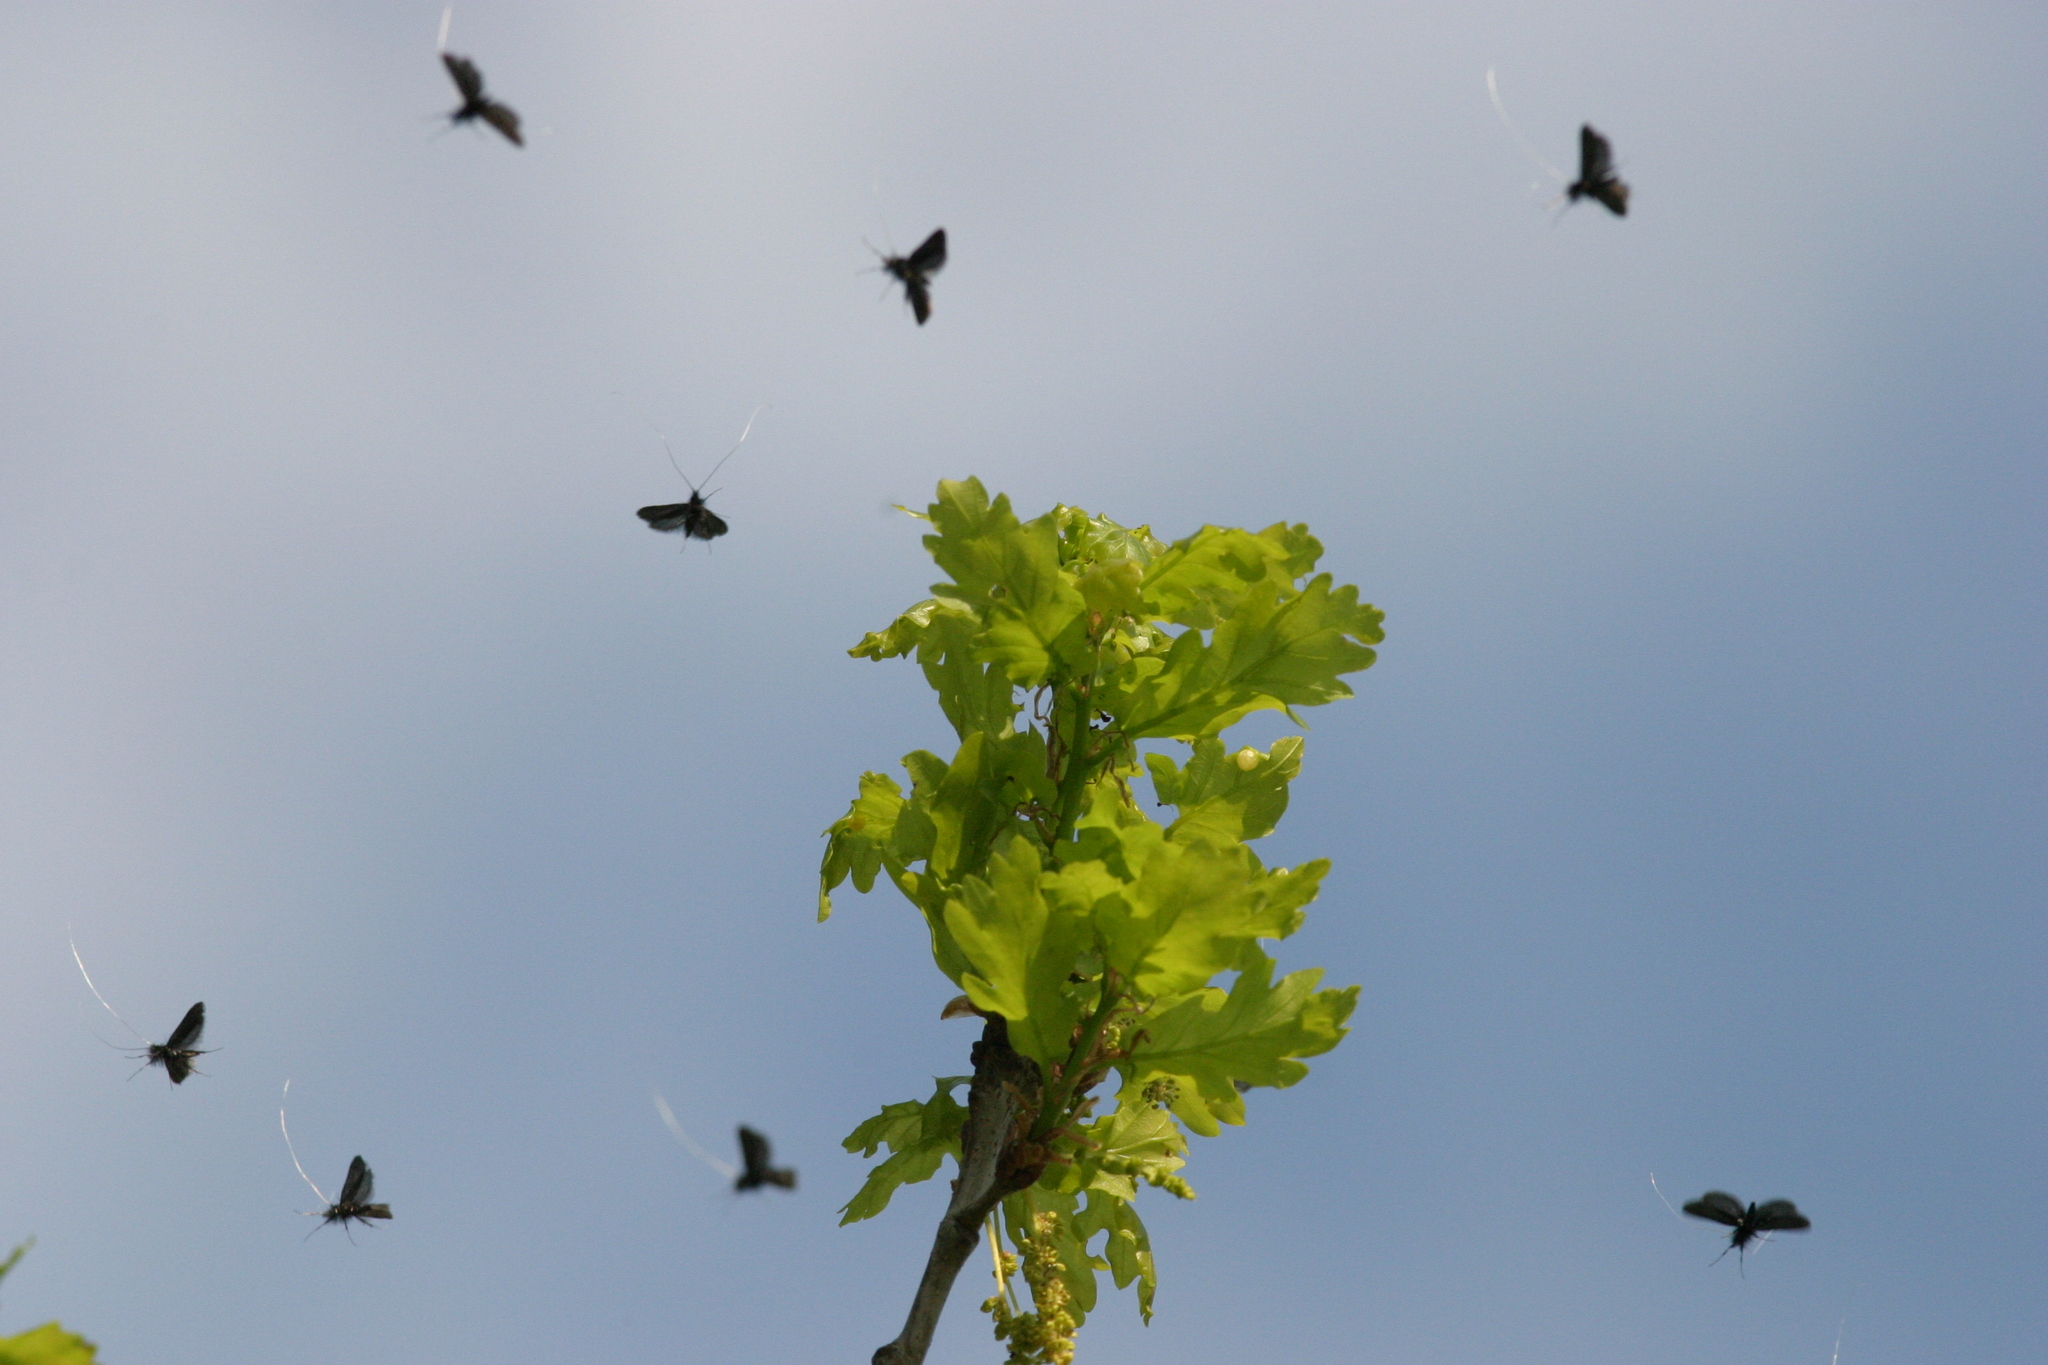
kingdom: Animalia
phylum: Arthropoda
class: Insecta
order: Lepidoptera
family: Adelidae
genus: Adela
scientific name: Adela viridella
